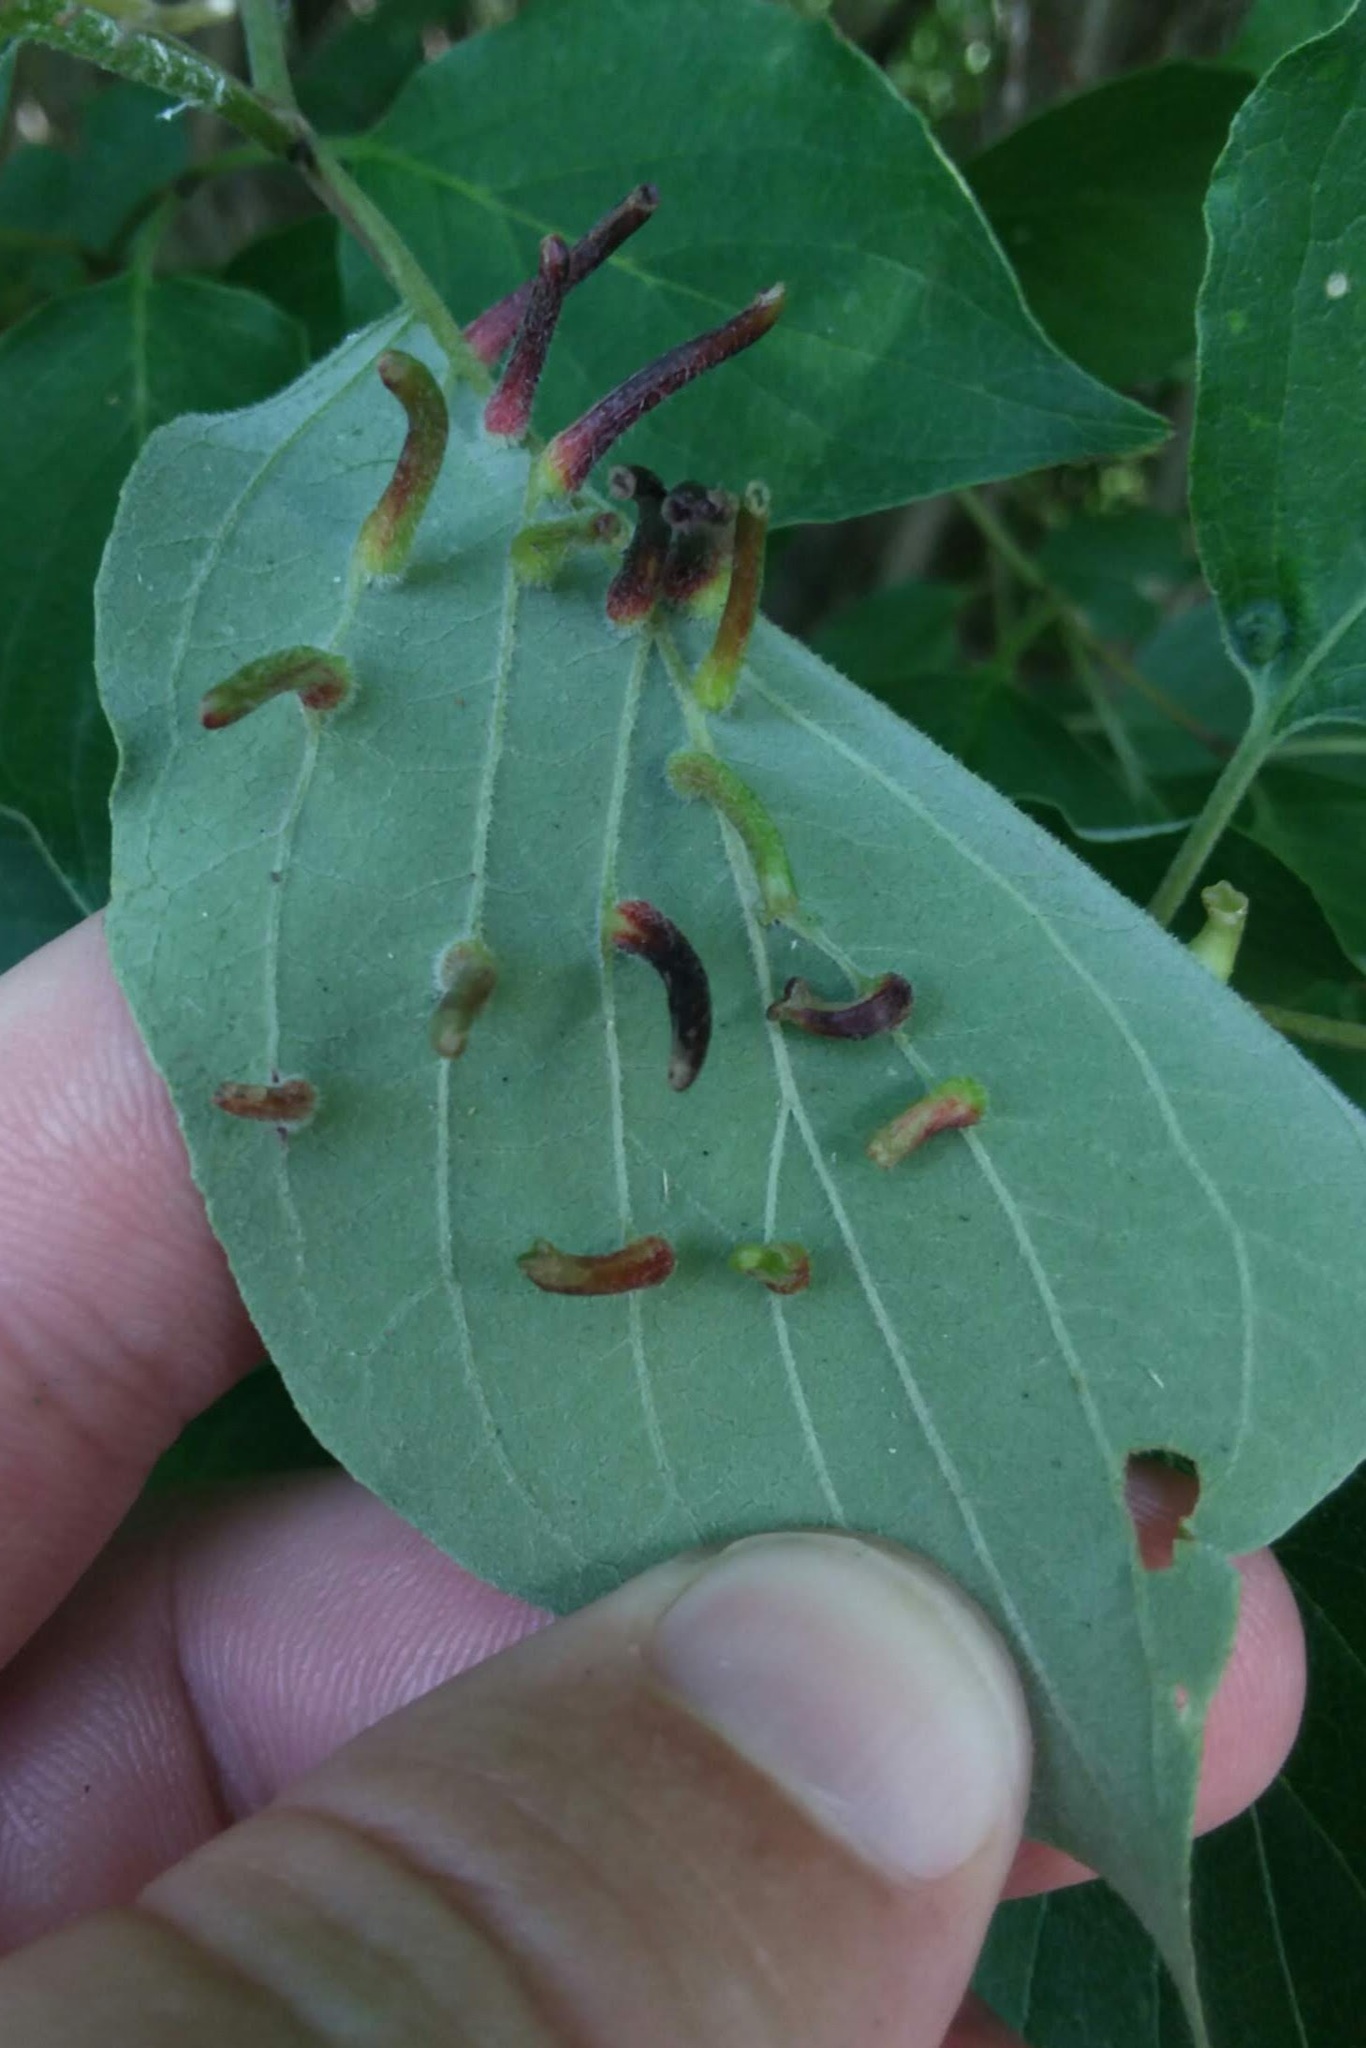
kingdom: Animalia
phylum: Arthropoda
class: Insecta
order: Diptera
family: Cecidomyiidae
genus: Dasineura
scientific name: Dasineura tuba
